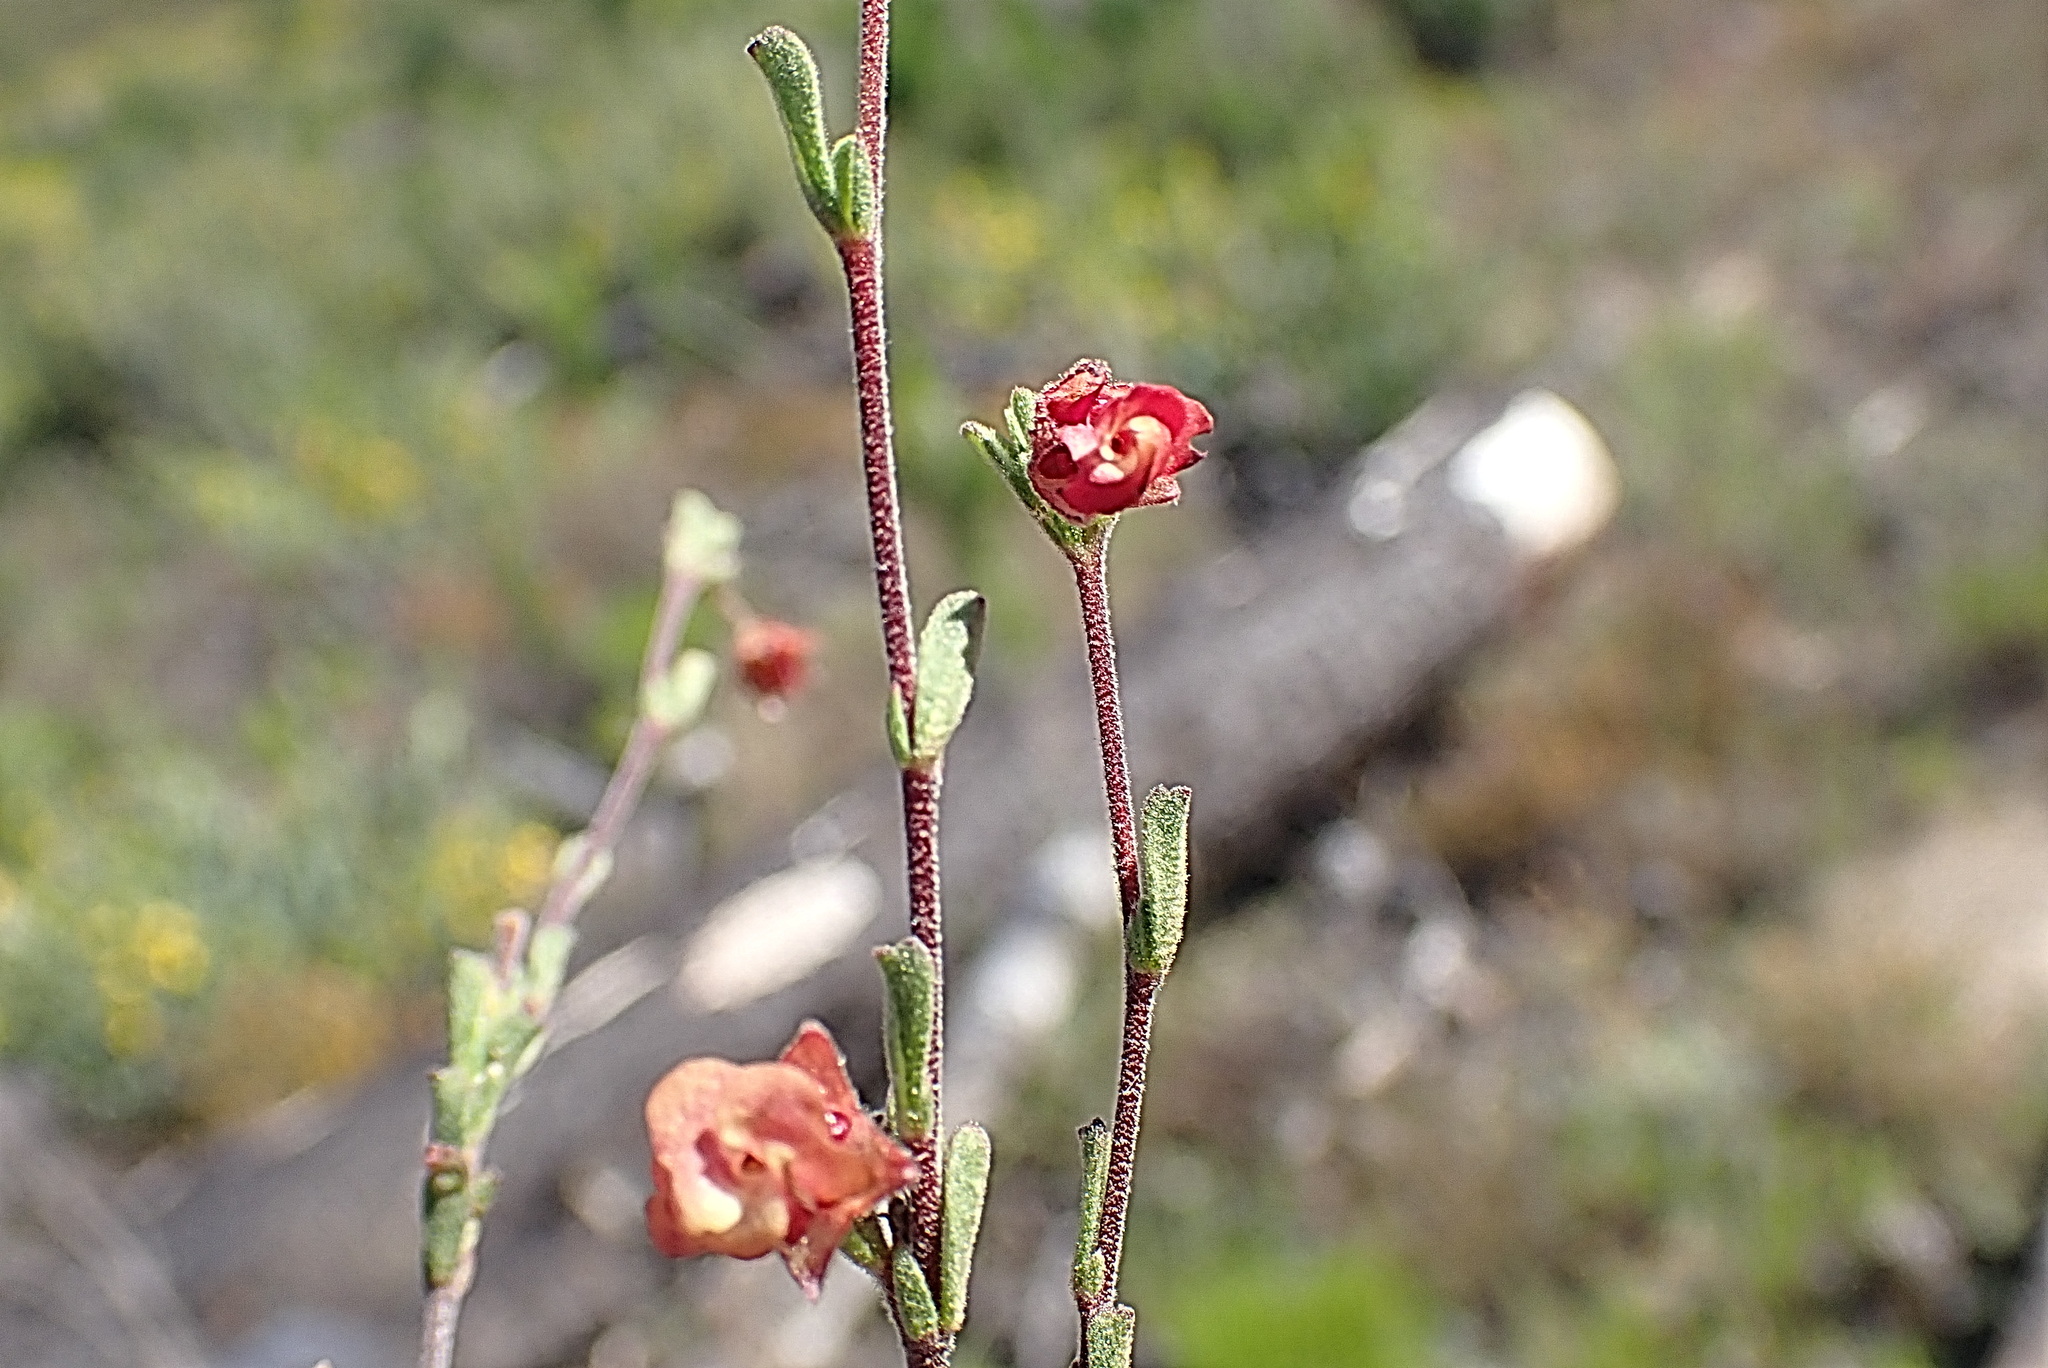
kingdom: Plantae
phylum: Tracheophyta
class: Magnoliopsida
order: Malvales
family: Malvaceae
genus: Hermannia
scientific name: Hermannia flammula
